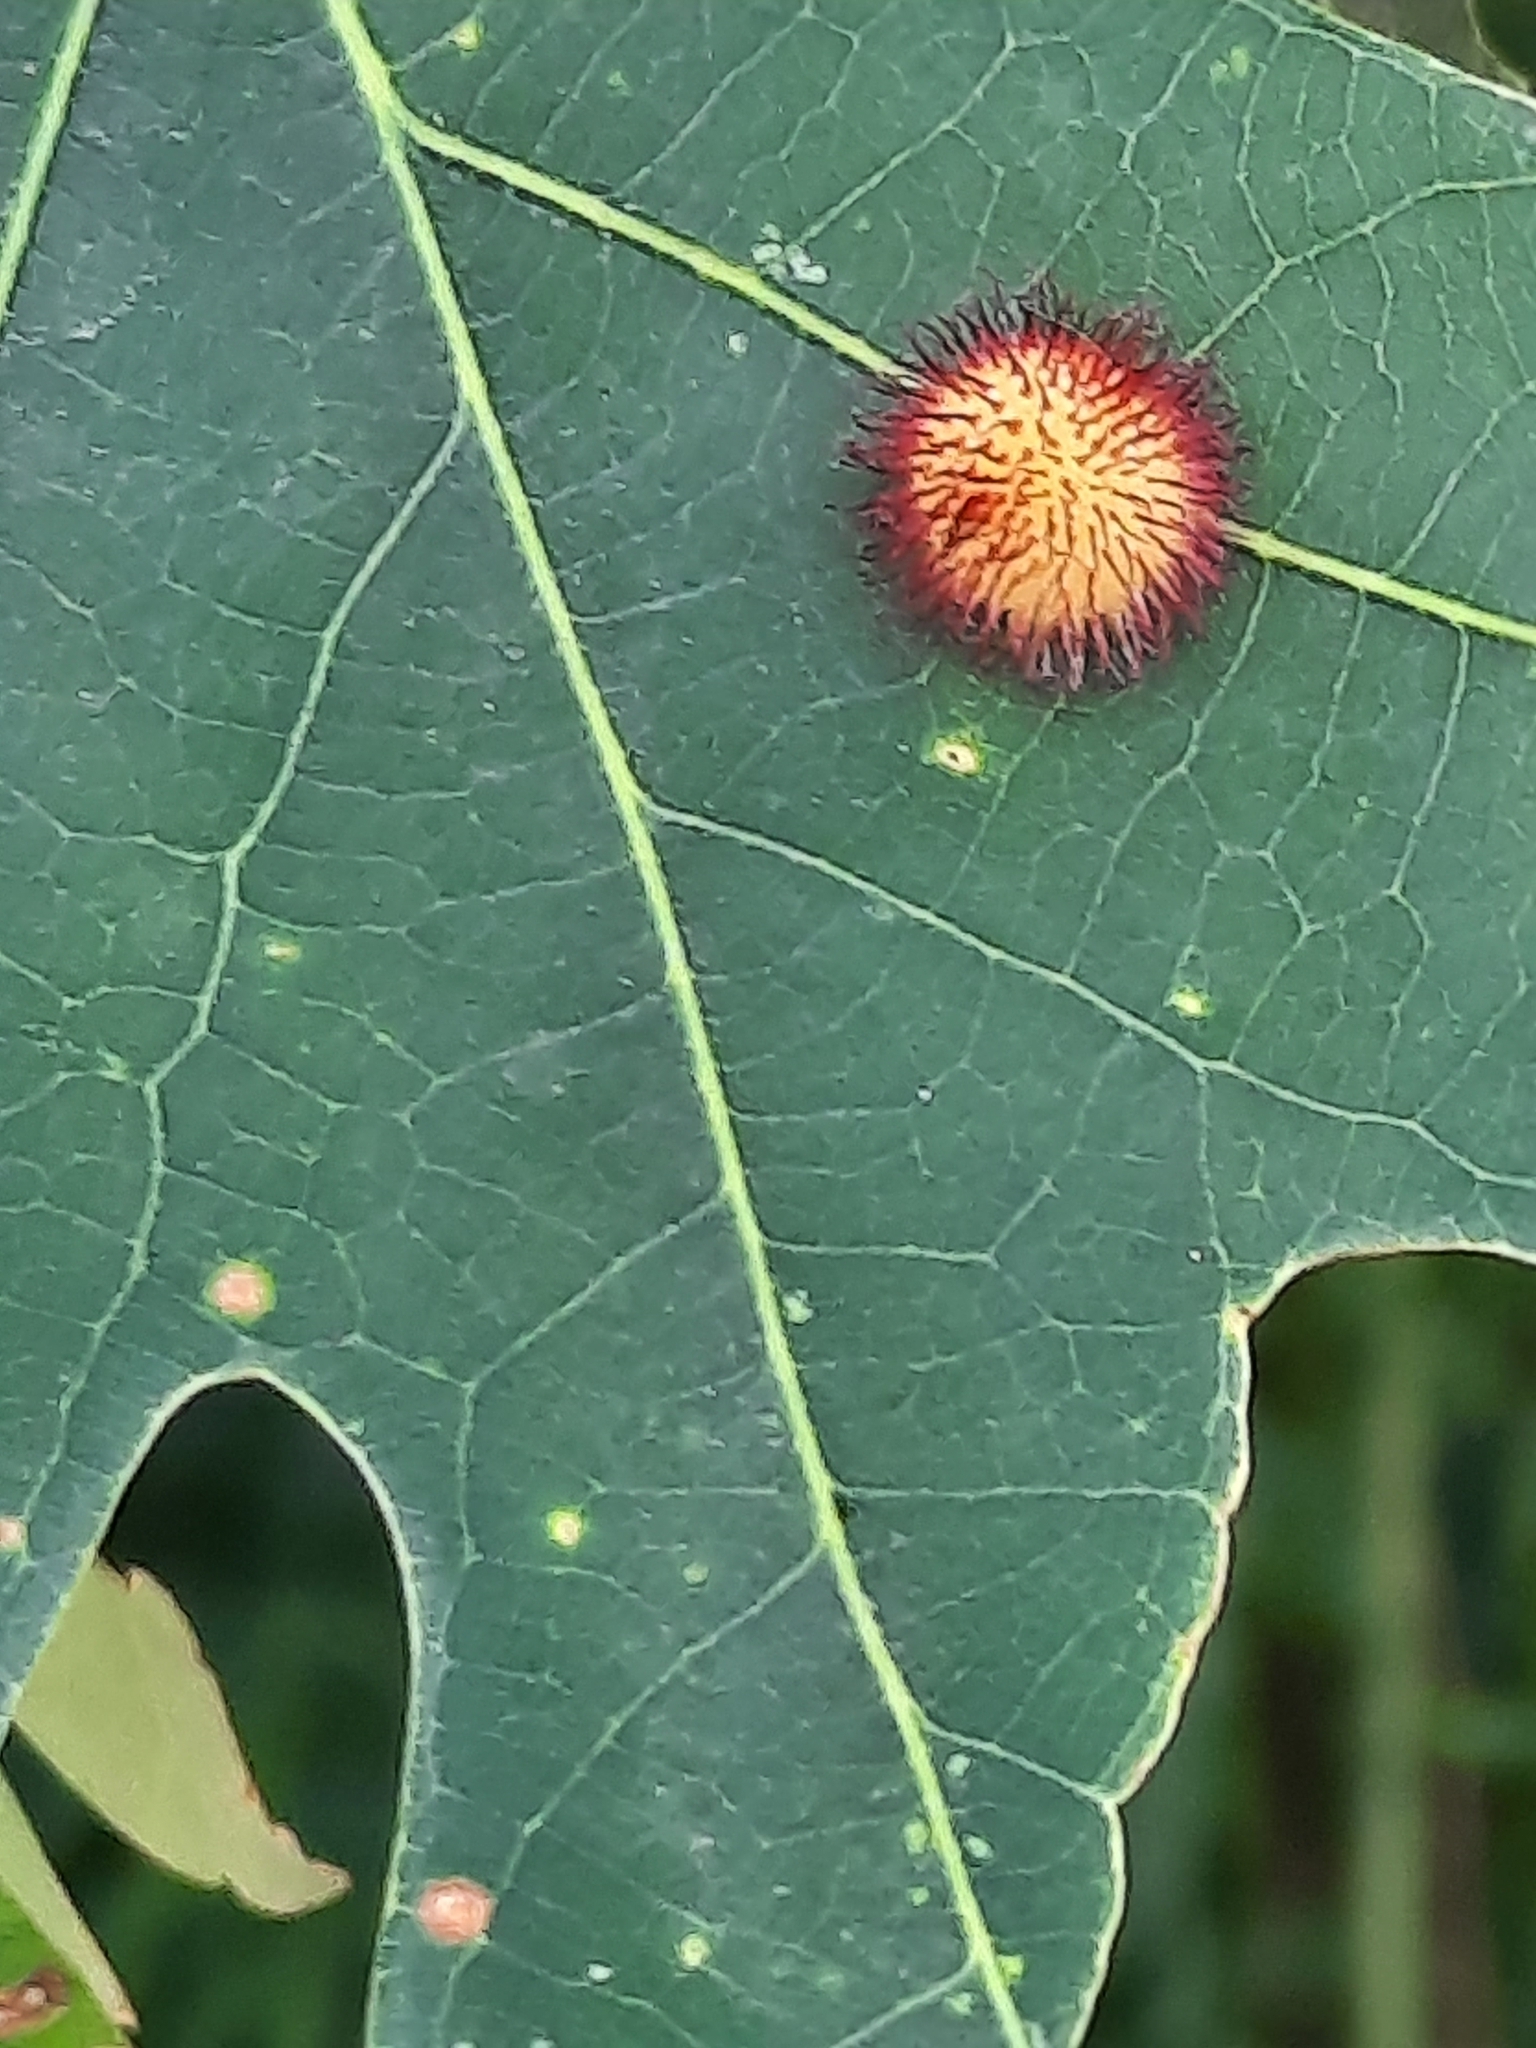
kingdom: Animalia
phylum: Arthropoda
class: Insecta
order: Hymenoptera
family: Cynipidae
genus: Acraspis
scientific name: Acraspis erinacei
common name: Hedgehog gall wasp
